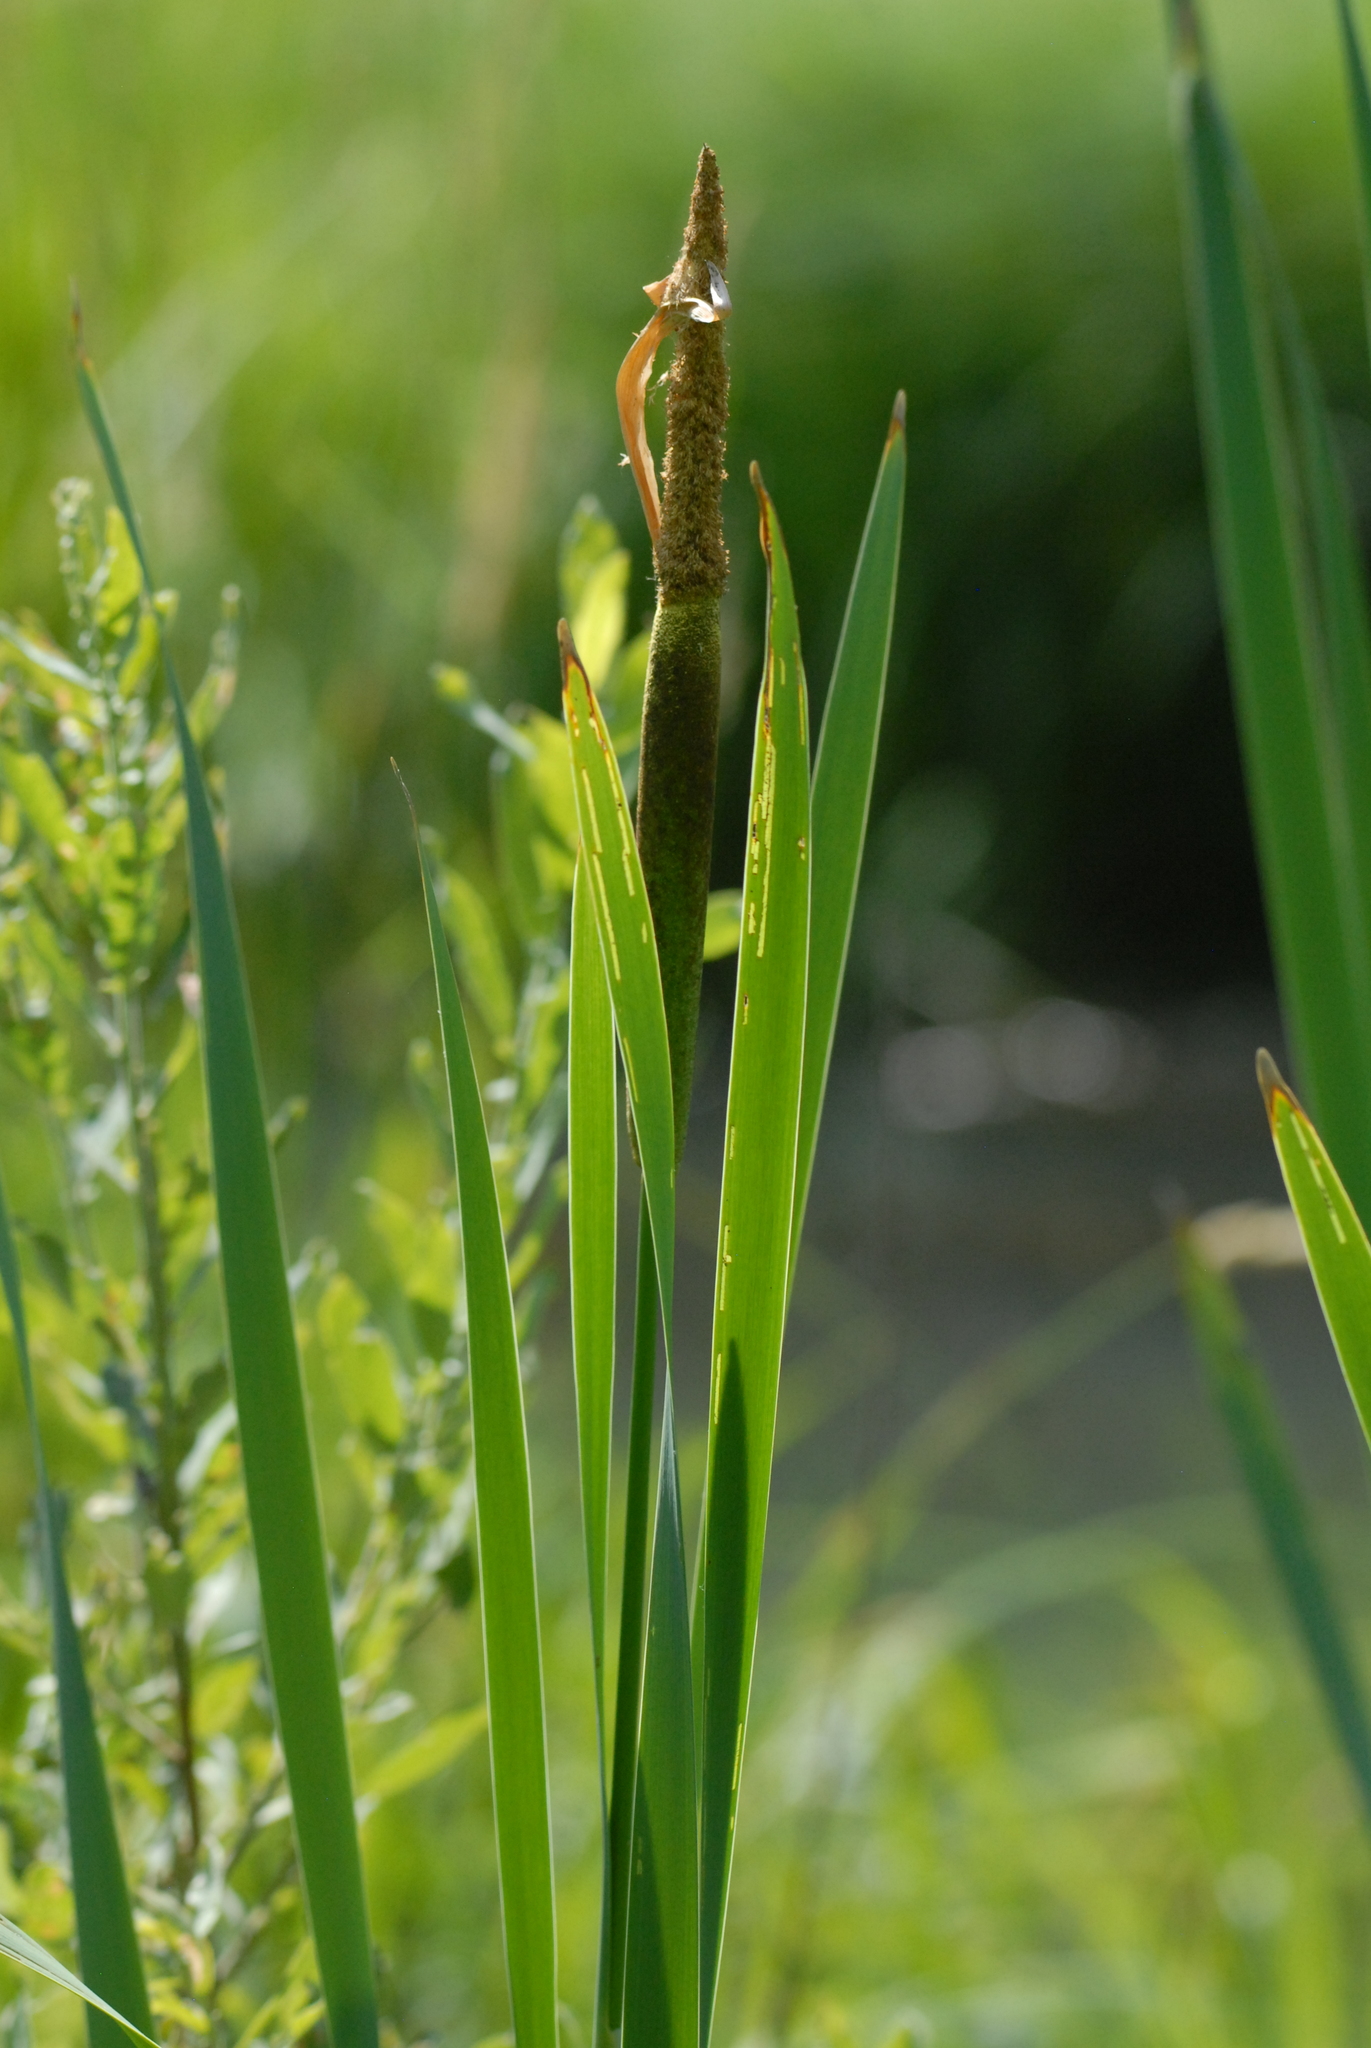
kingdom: Plantae
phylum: Tracheophyta
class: Liliopsida
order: Poales
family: Typhaceae
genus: Typha
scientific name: Typha latifolia
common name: Broadleaf cattail
